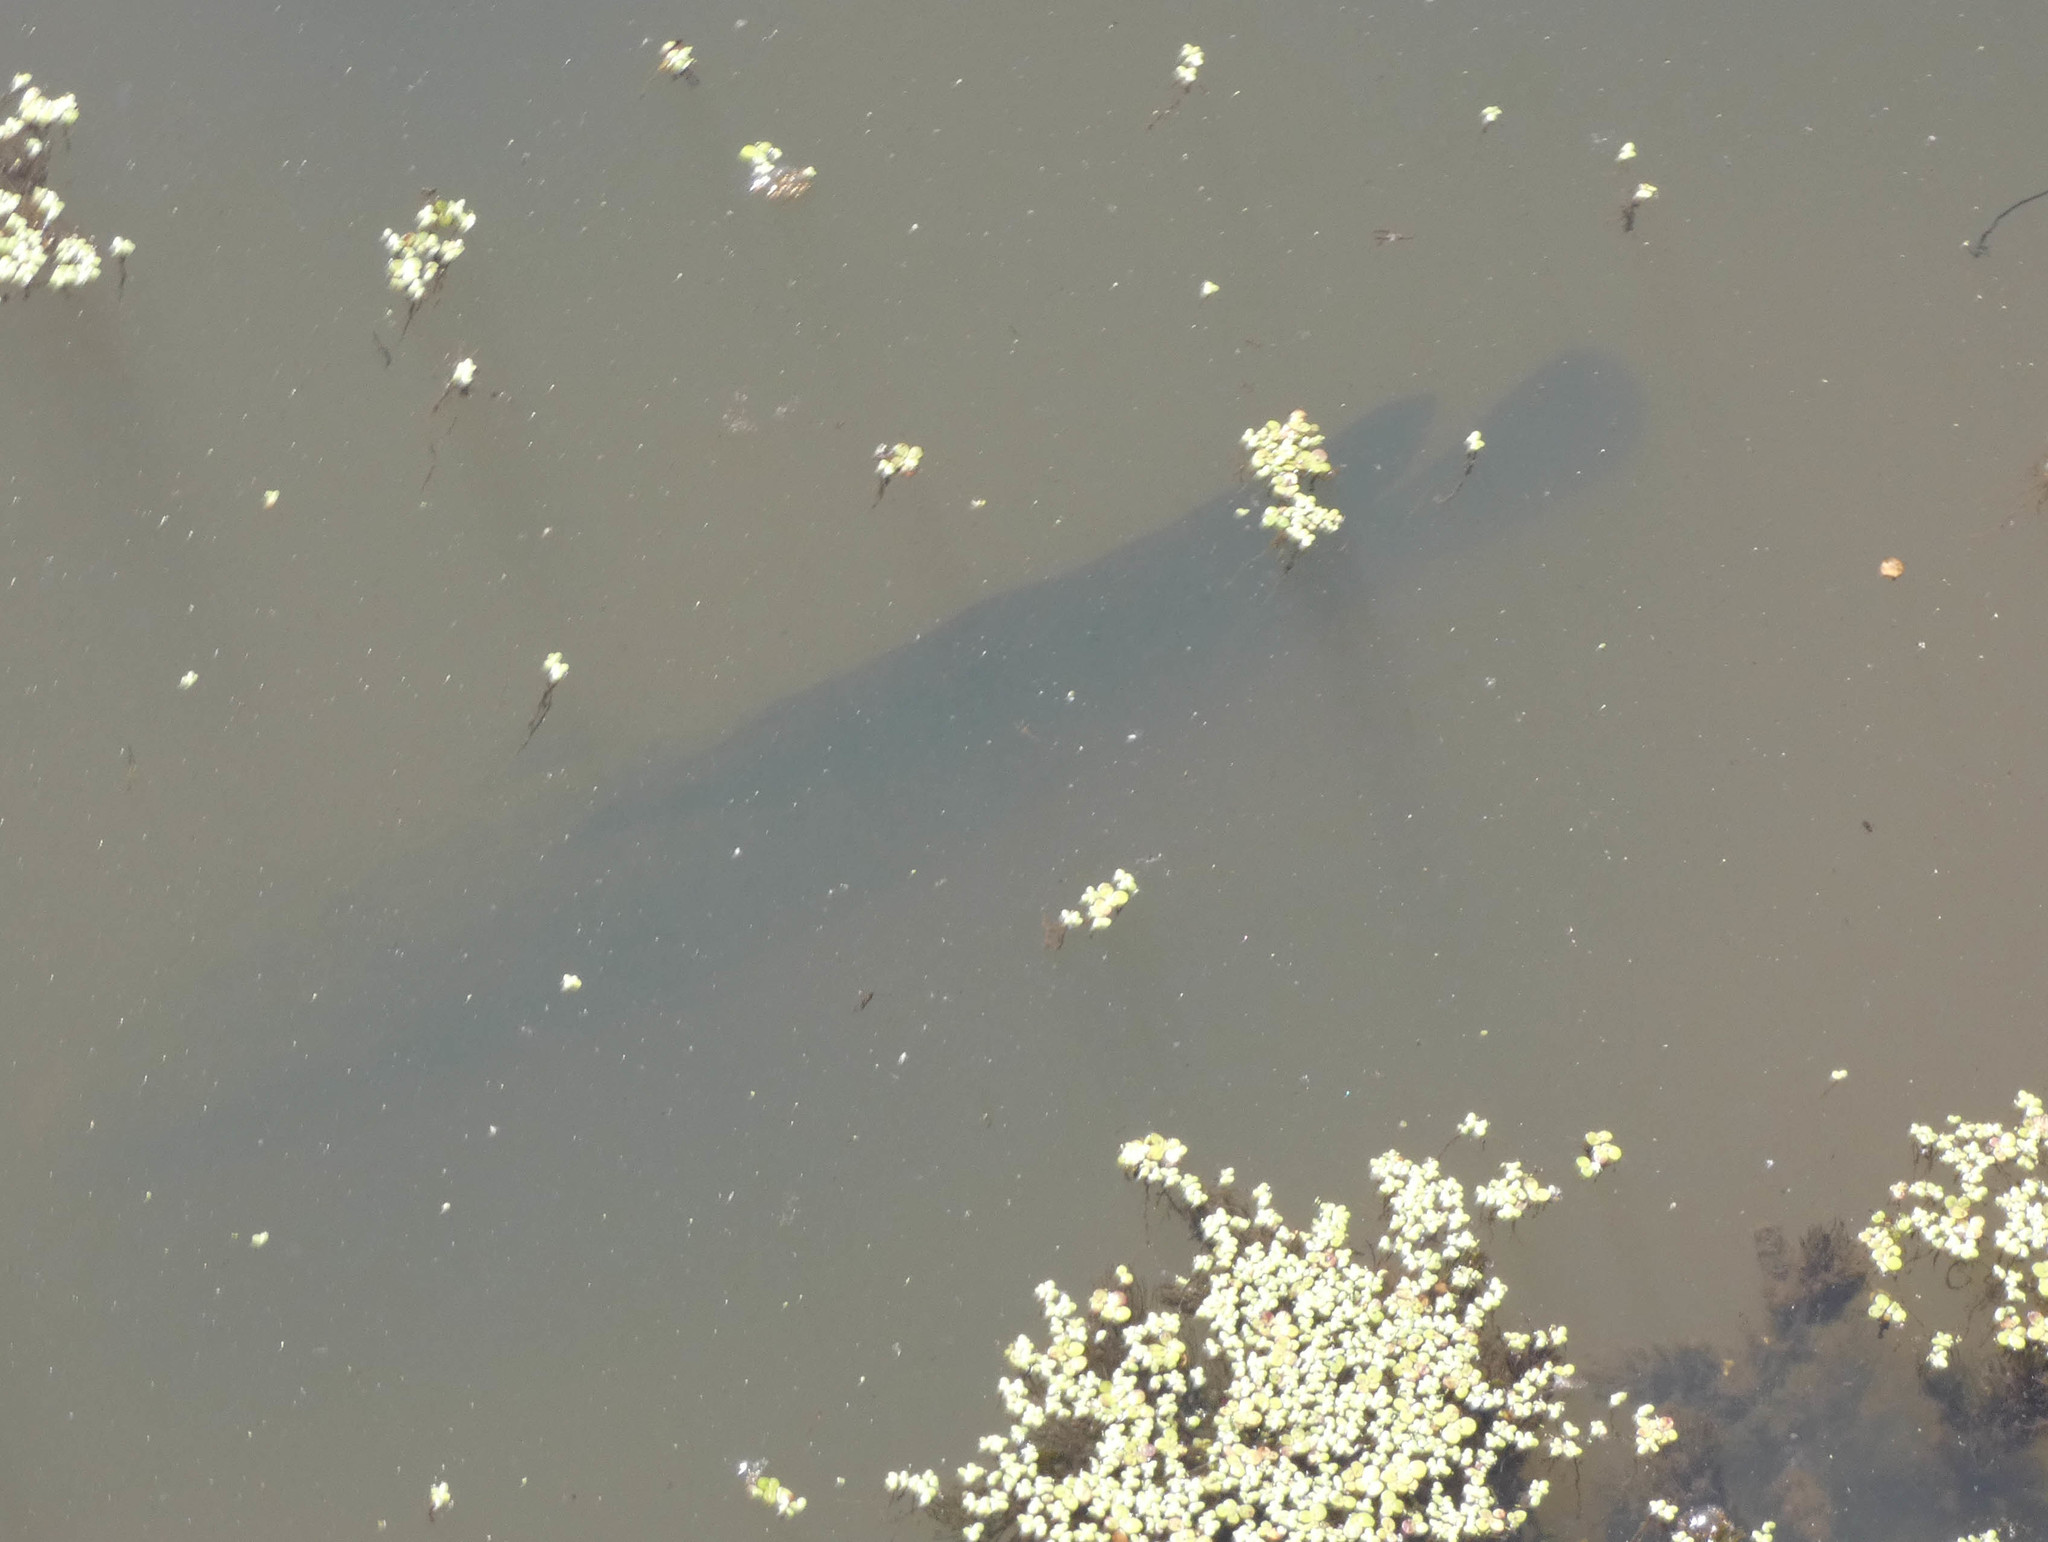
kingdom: Animalia
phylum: Chordata
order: Perciformes
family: Channidae
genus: Channa
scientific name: Channa argus
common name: Northern snakehead
